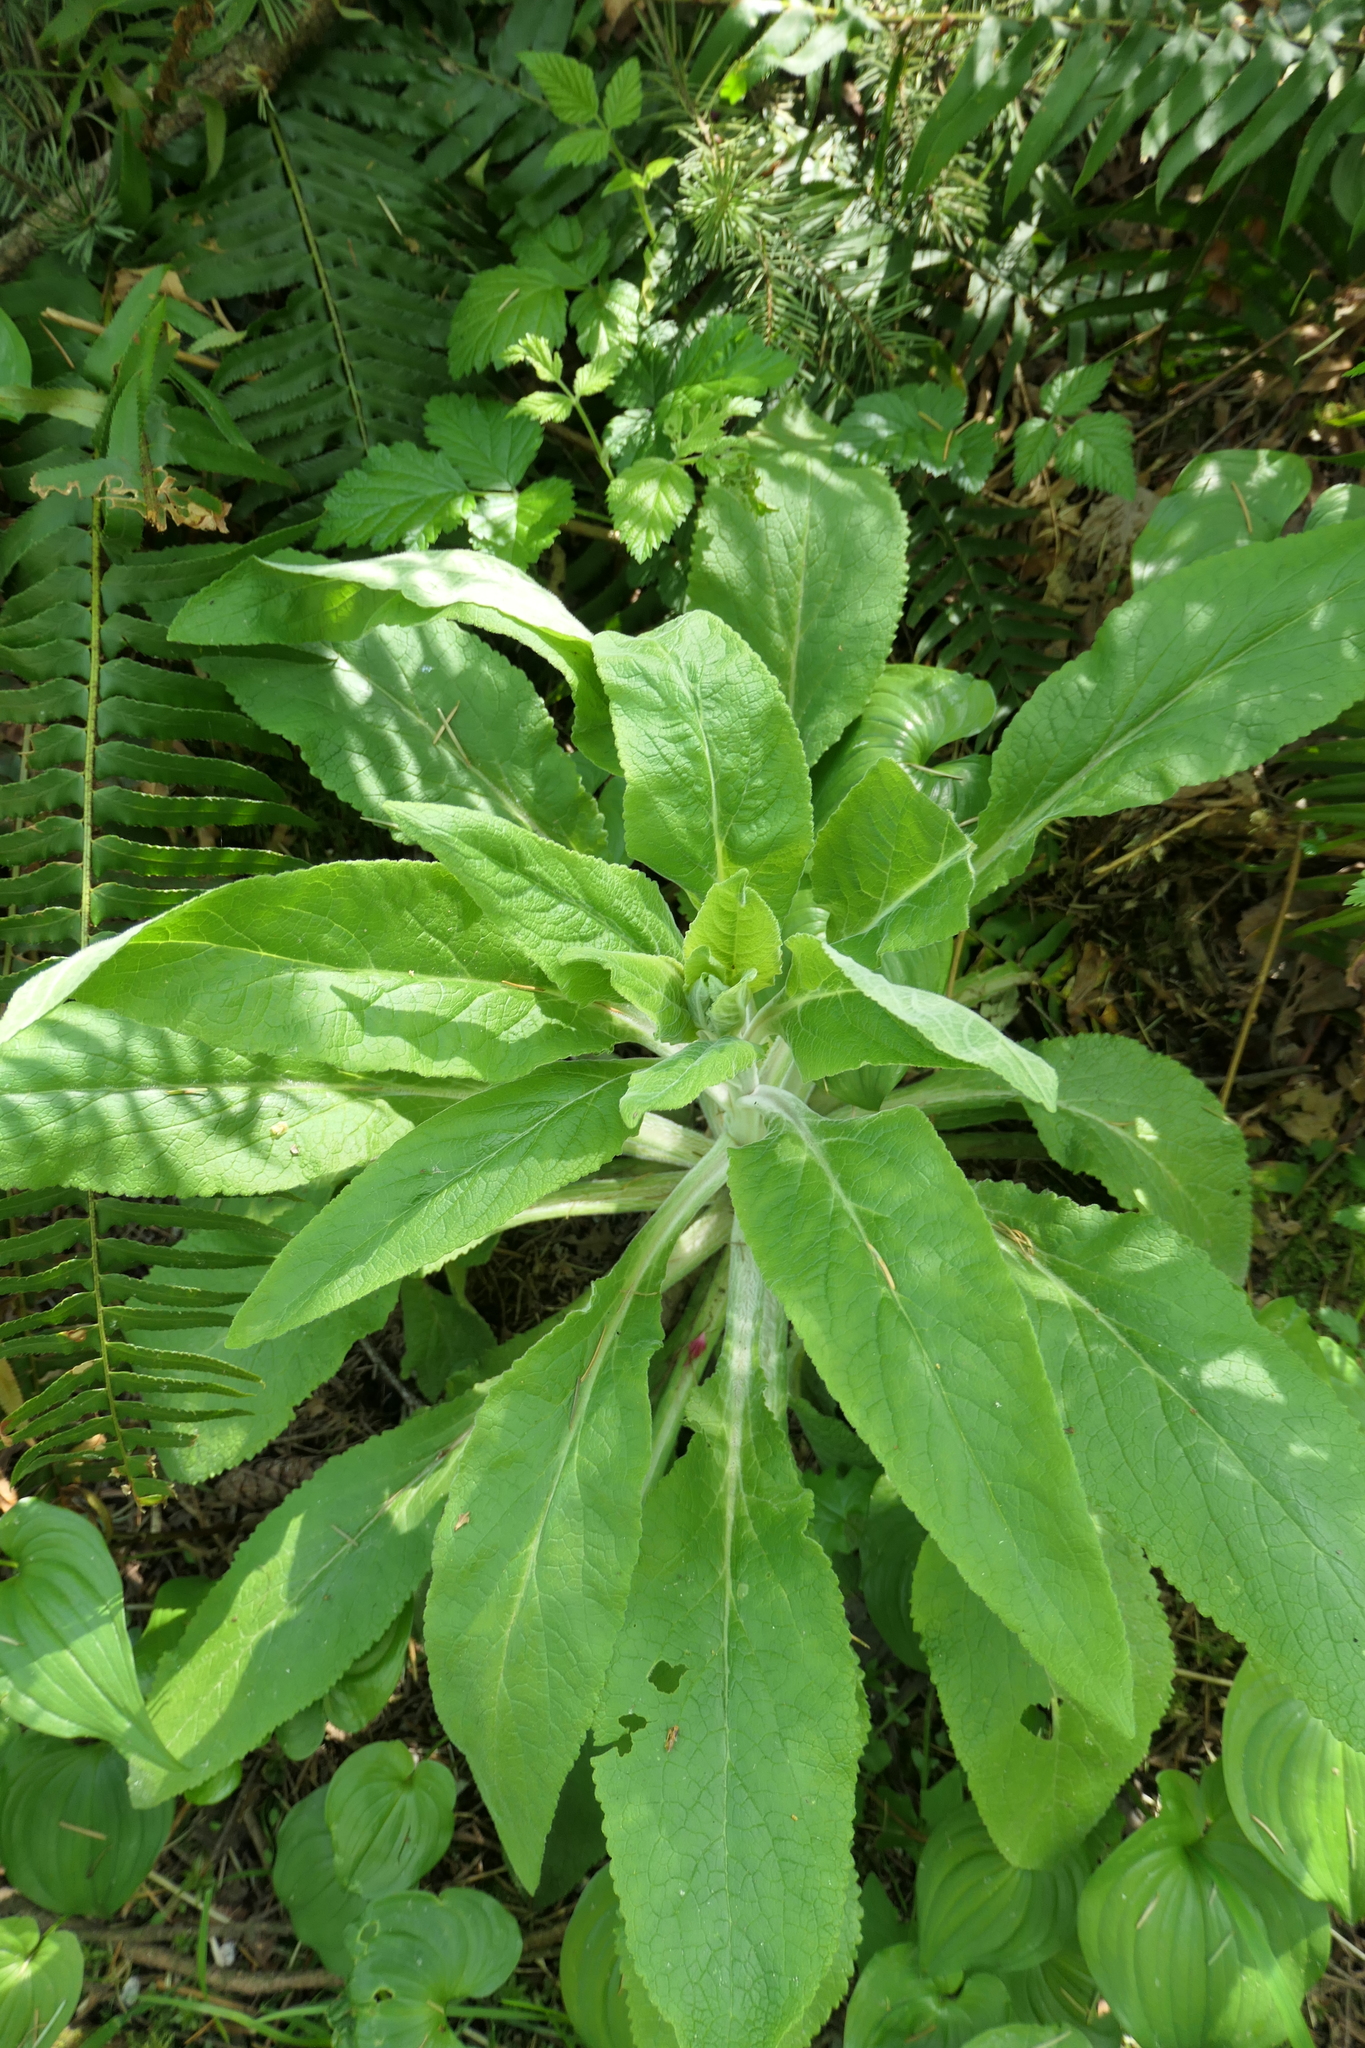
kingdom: Plantae
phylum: Tracheophyta
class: Magnoliopsida
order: Lamiales
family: Plantaginaceae
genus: Digitalis
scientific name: Digitalis purpurea
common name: Foxglove
